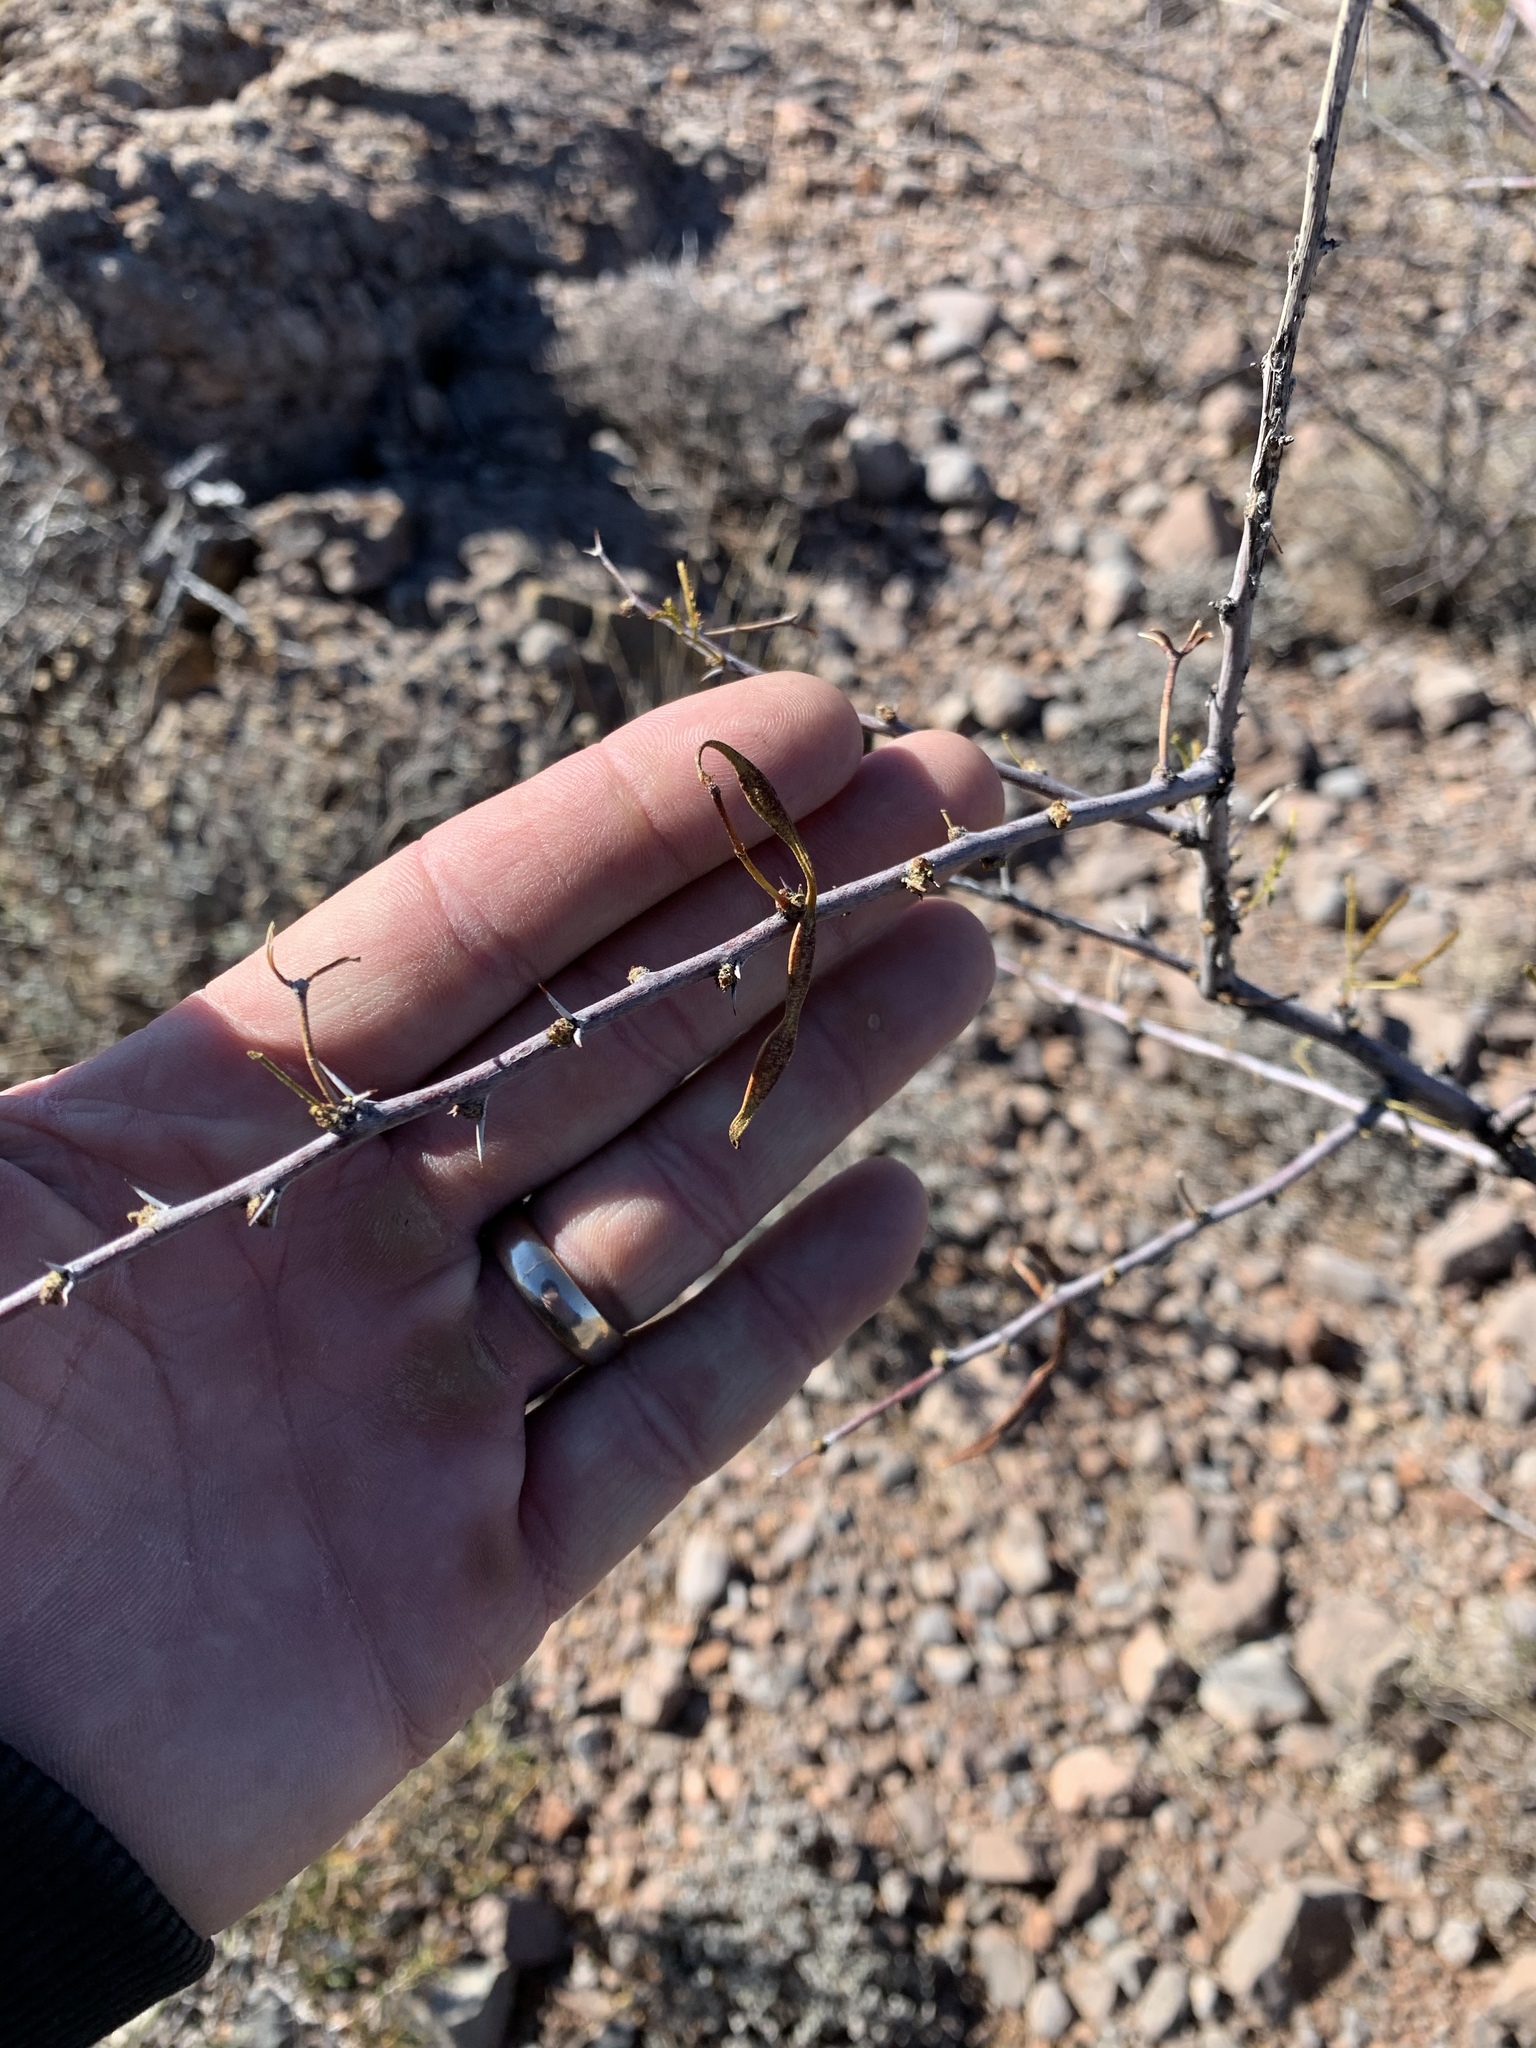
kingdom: Plantae
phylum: Tracheophyta
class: Magnoliopsida
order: Fabales
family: Fabaceae
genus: Vachellia
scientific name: Vachellia constricta
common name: Mescat acacia
